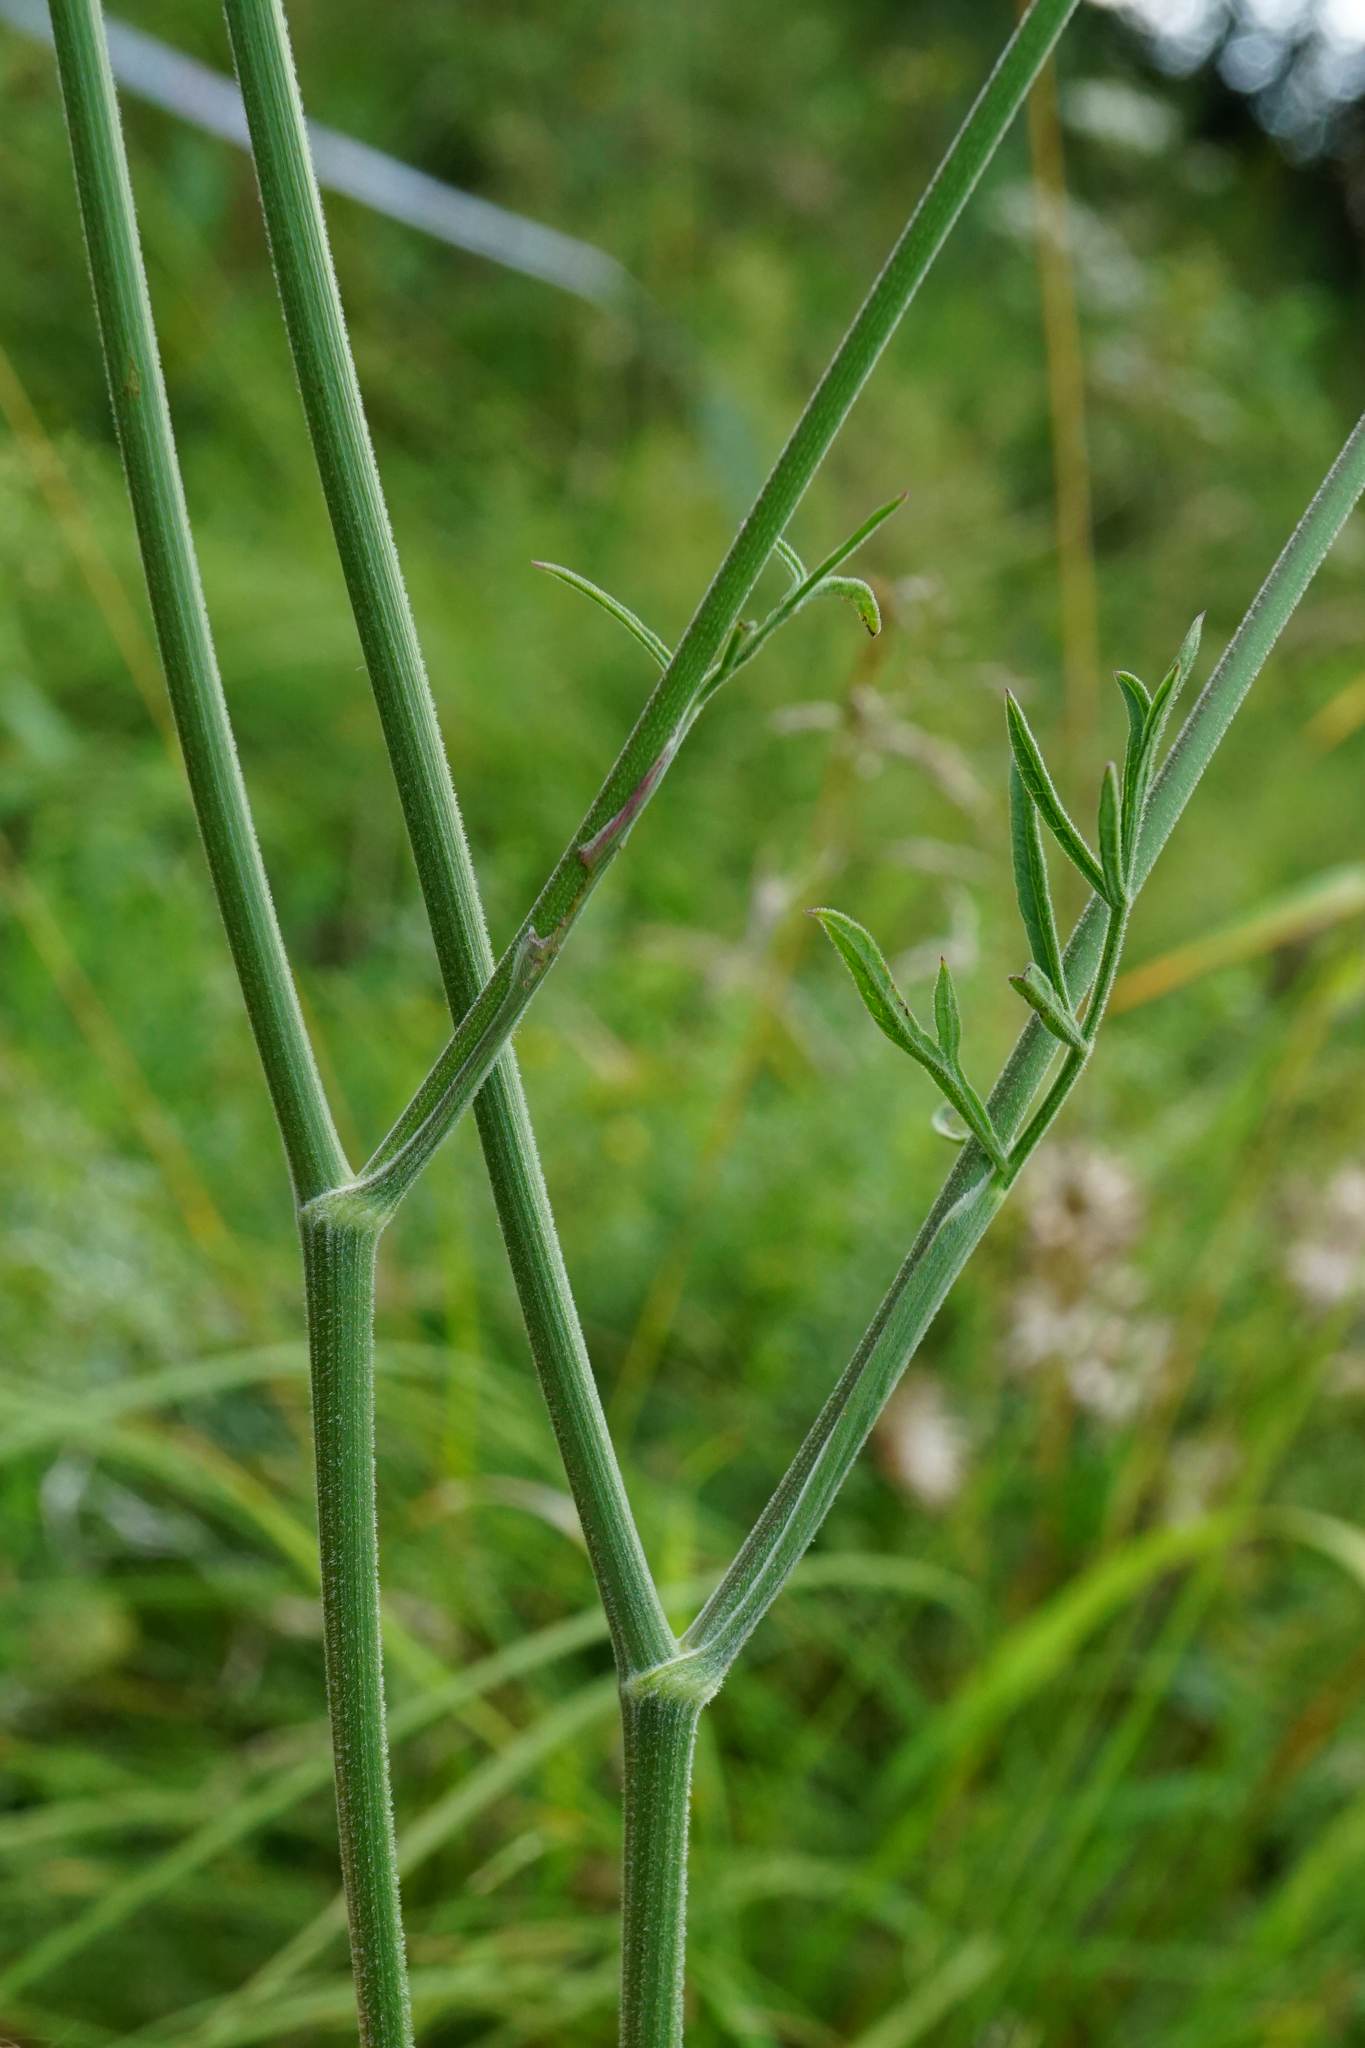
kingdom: Plantae
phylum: Tracheophyta
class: Magnoliopsida
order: Apiales
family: Apiaceae
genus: Pimpinella
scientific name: Pimpinella saxifraga
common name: Burnet-saxifrage
